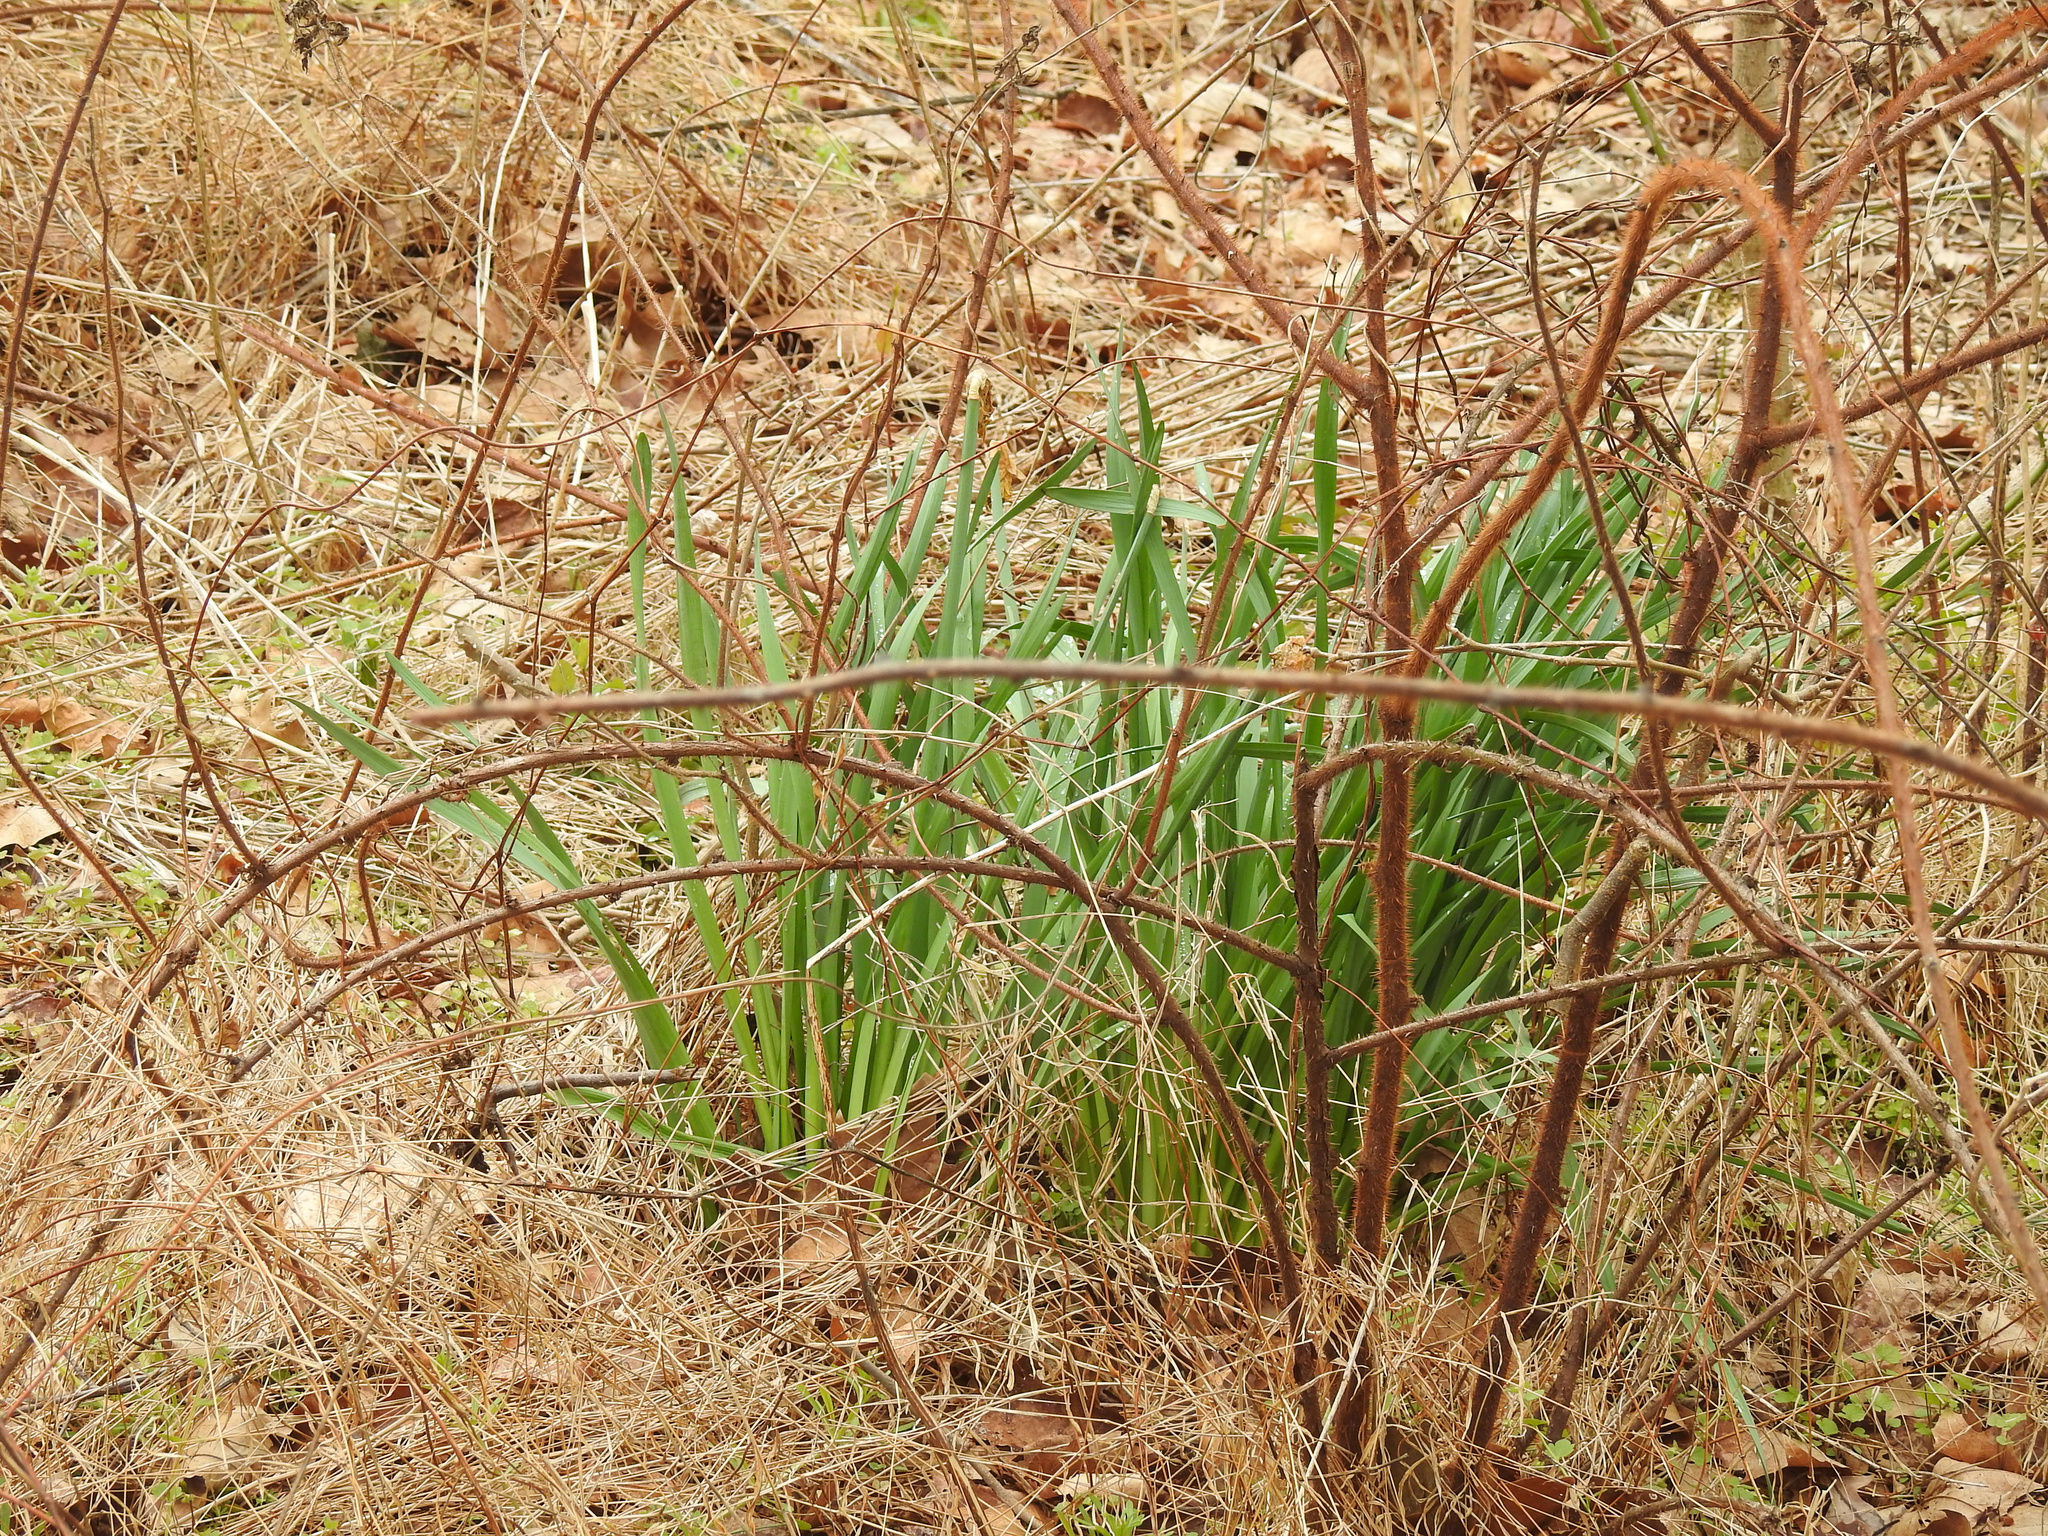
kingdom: Plantae
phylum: Tracheophyta
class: Liliopsida
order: Asparagales
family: Amaryllidaceae
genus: Narcissus
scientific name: Narcissus
